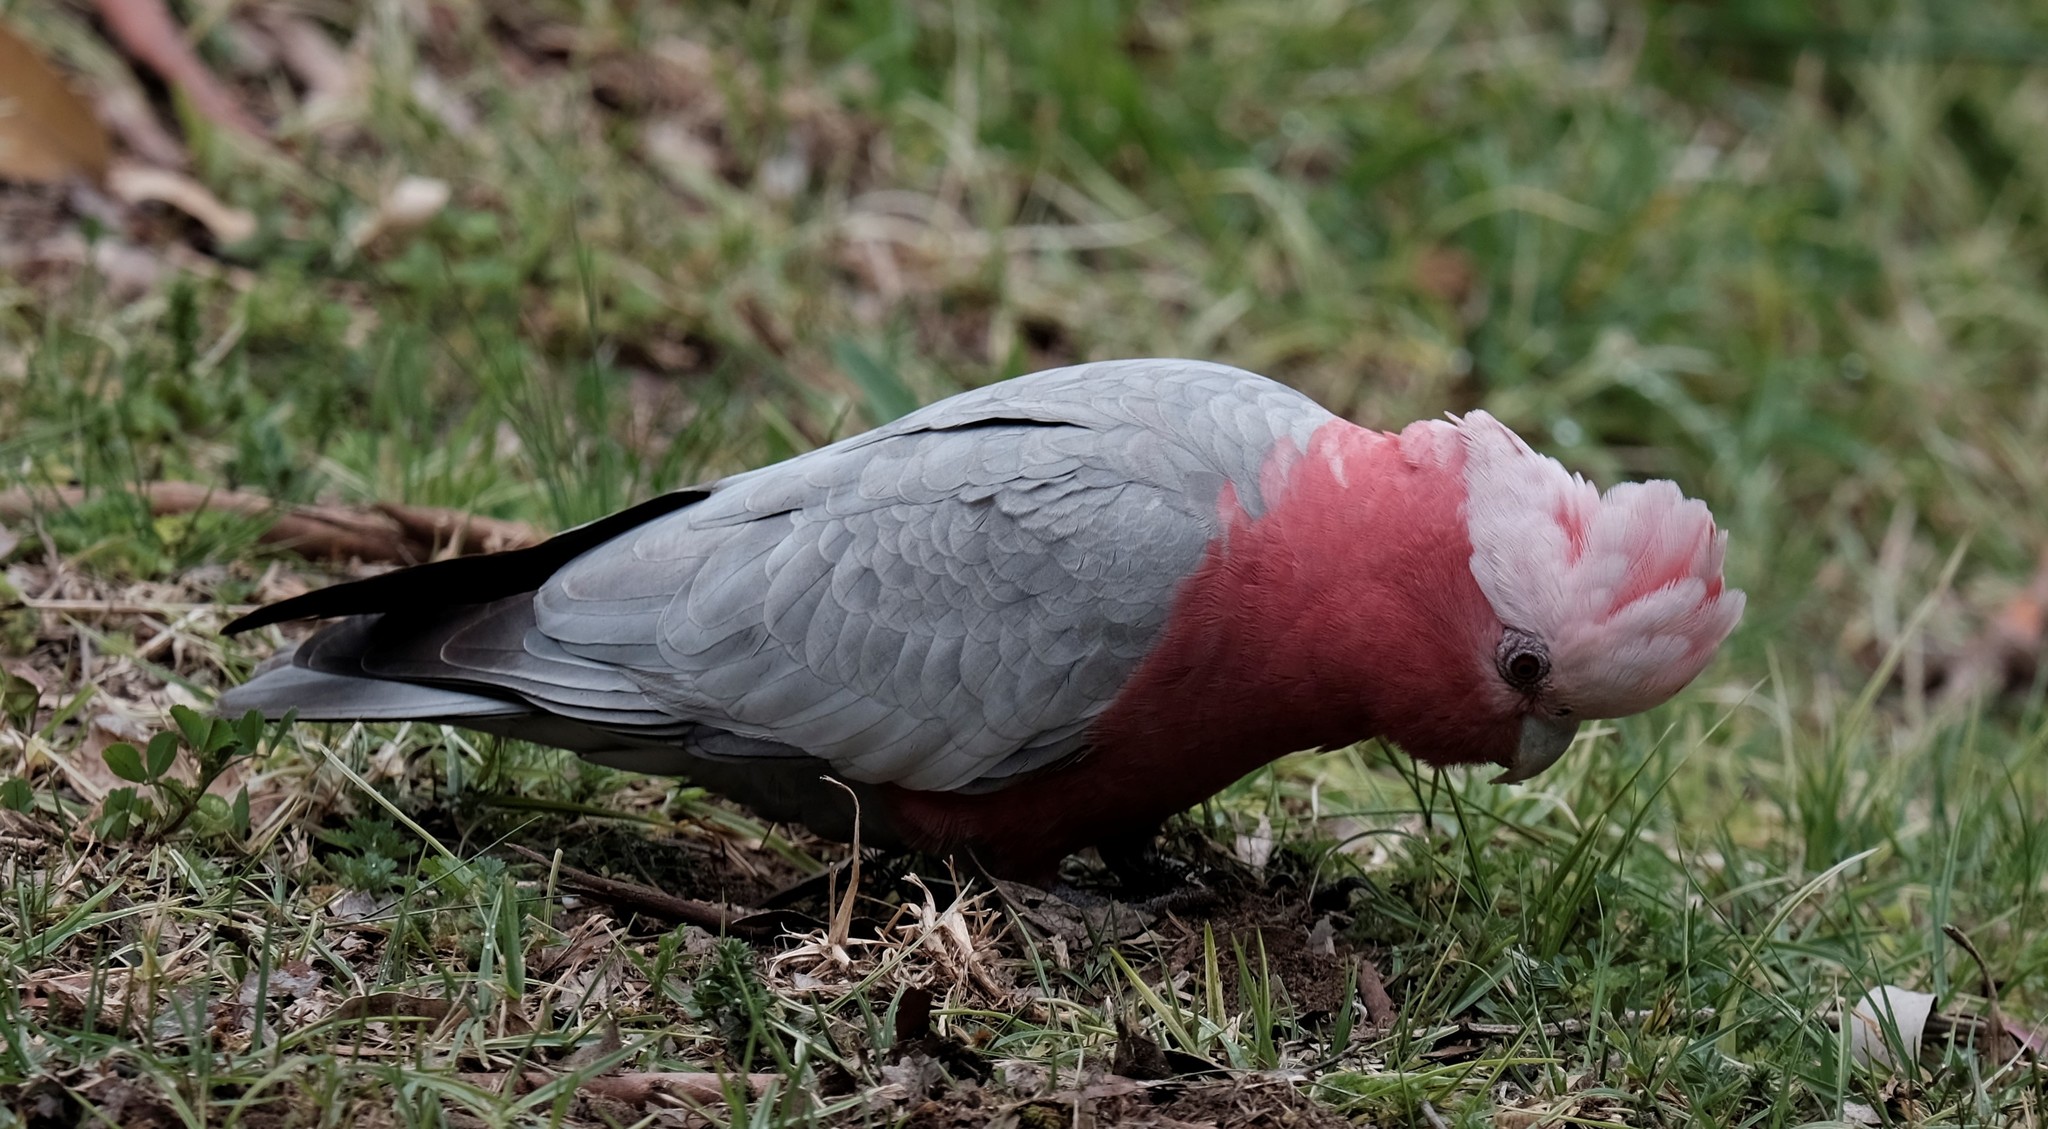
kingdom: Animalia
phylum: Chordata
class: Aves
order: Psittaciformes
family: Psittacidae
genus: Eolophus
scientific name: Eolophus roseicapilla
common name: Galah
